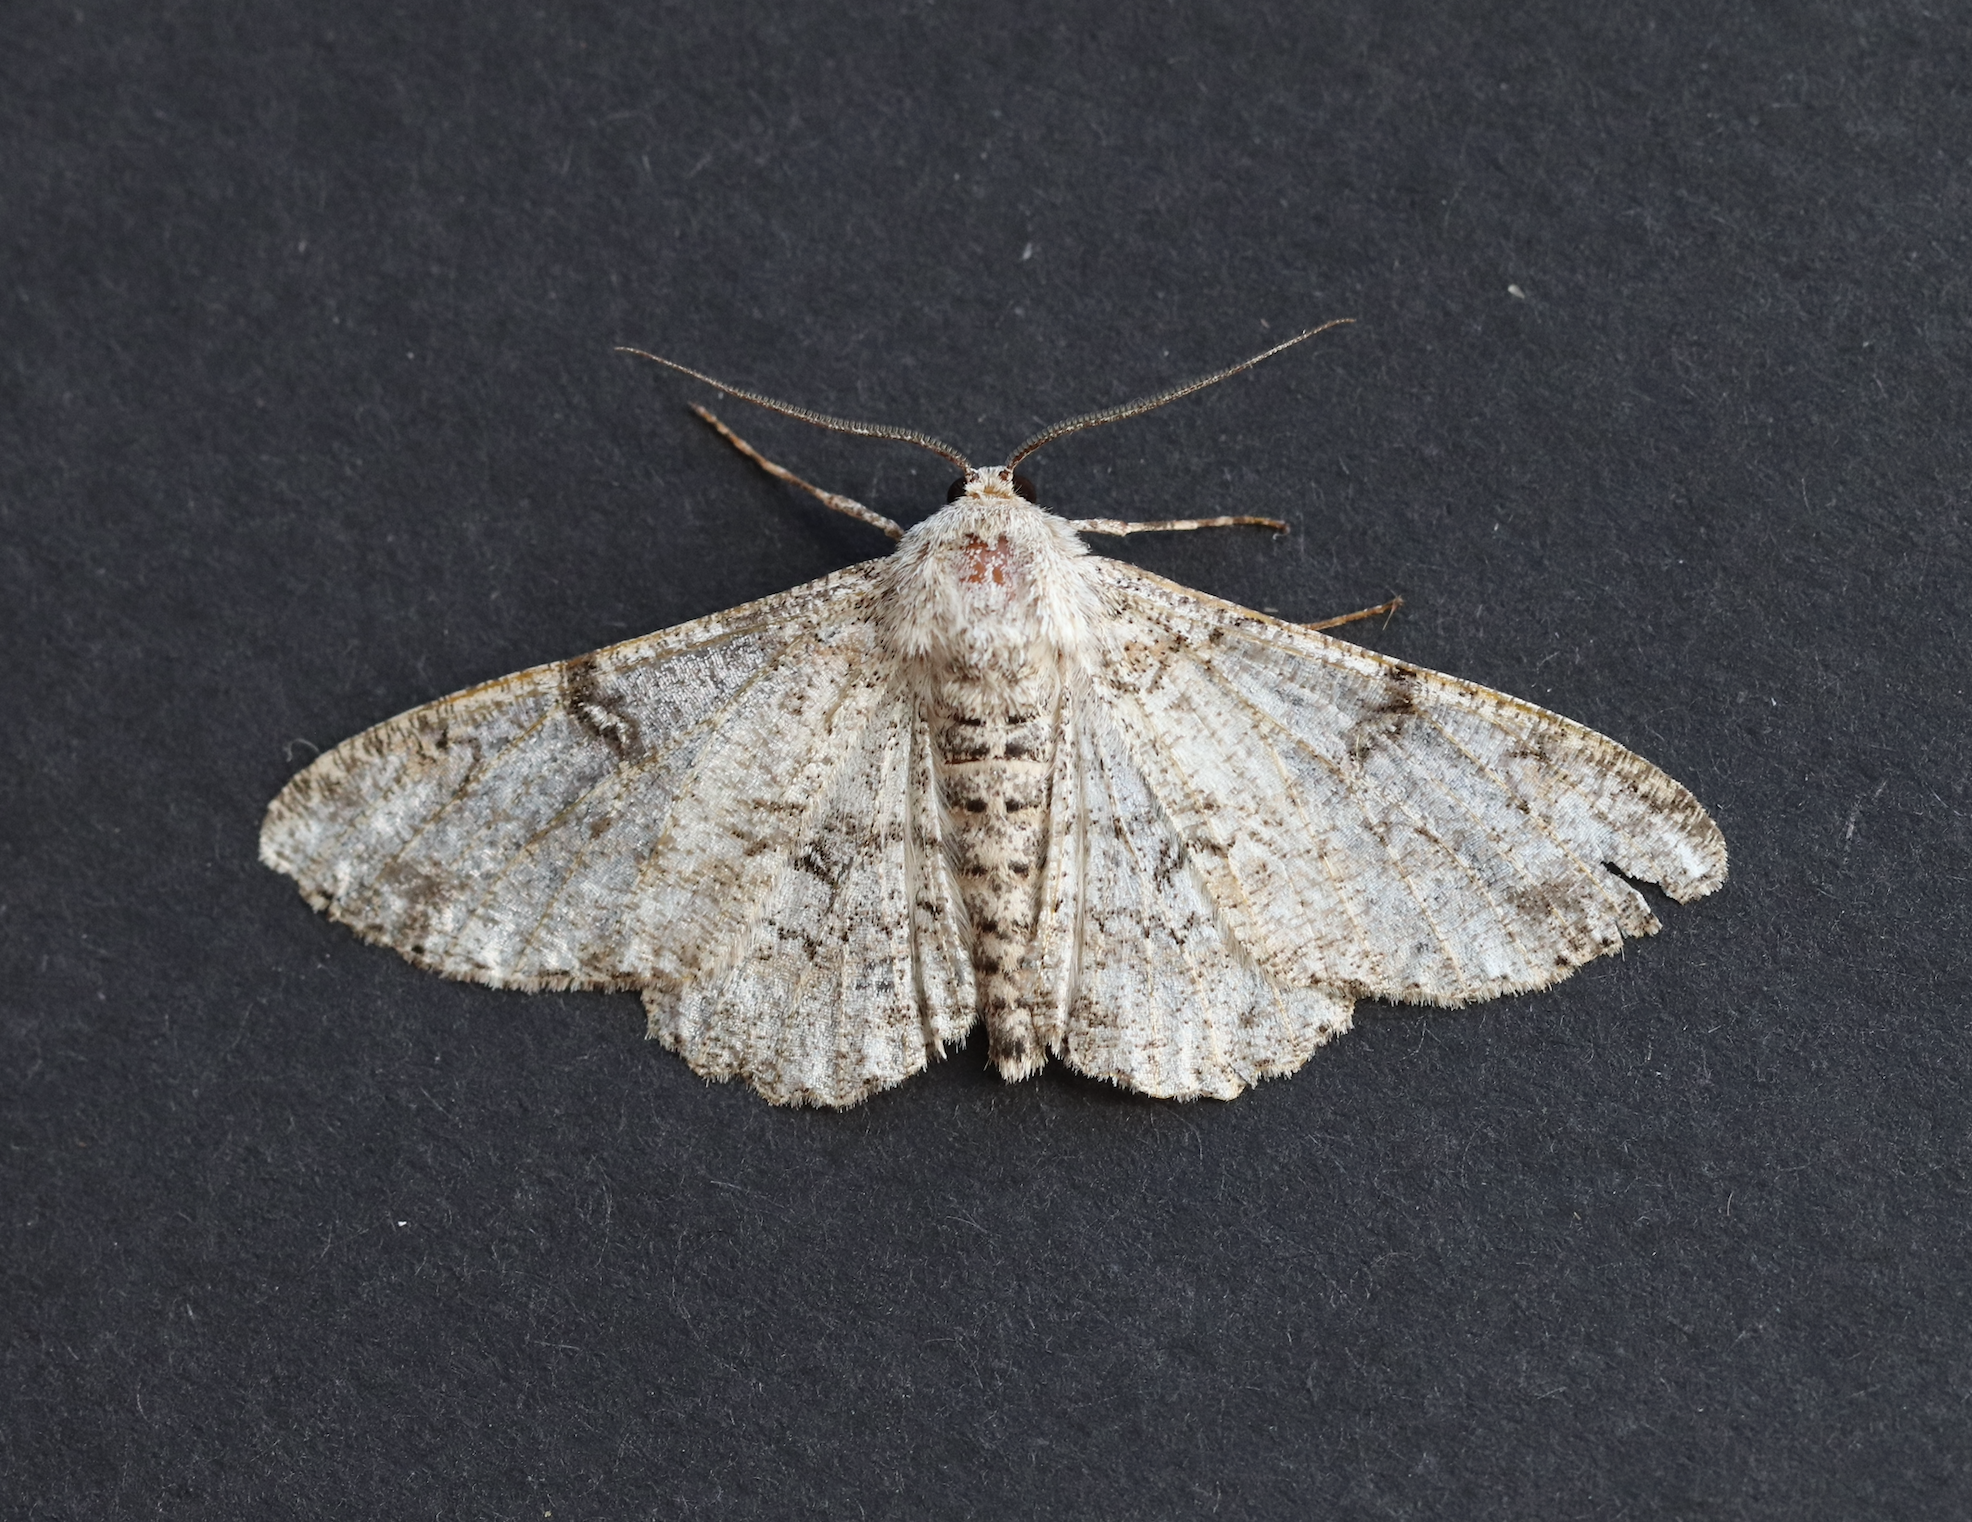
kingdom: Animalia
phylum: Arthropoda
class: Insecta
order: Lepidoptera
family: Geometridae
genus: Ascotis
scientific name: Ascotis selenaria
